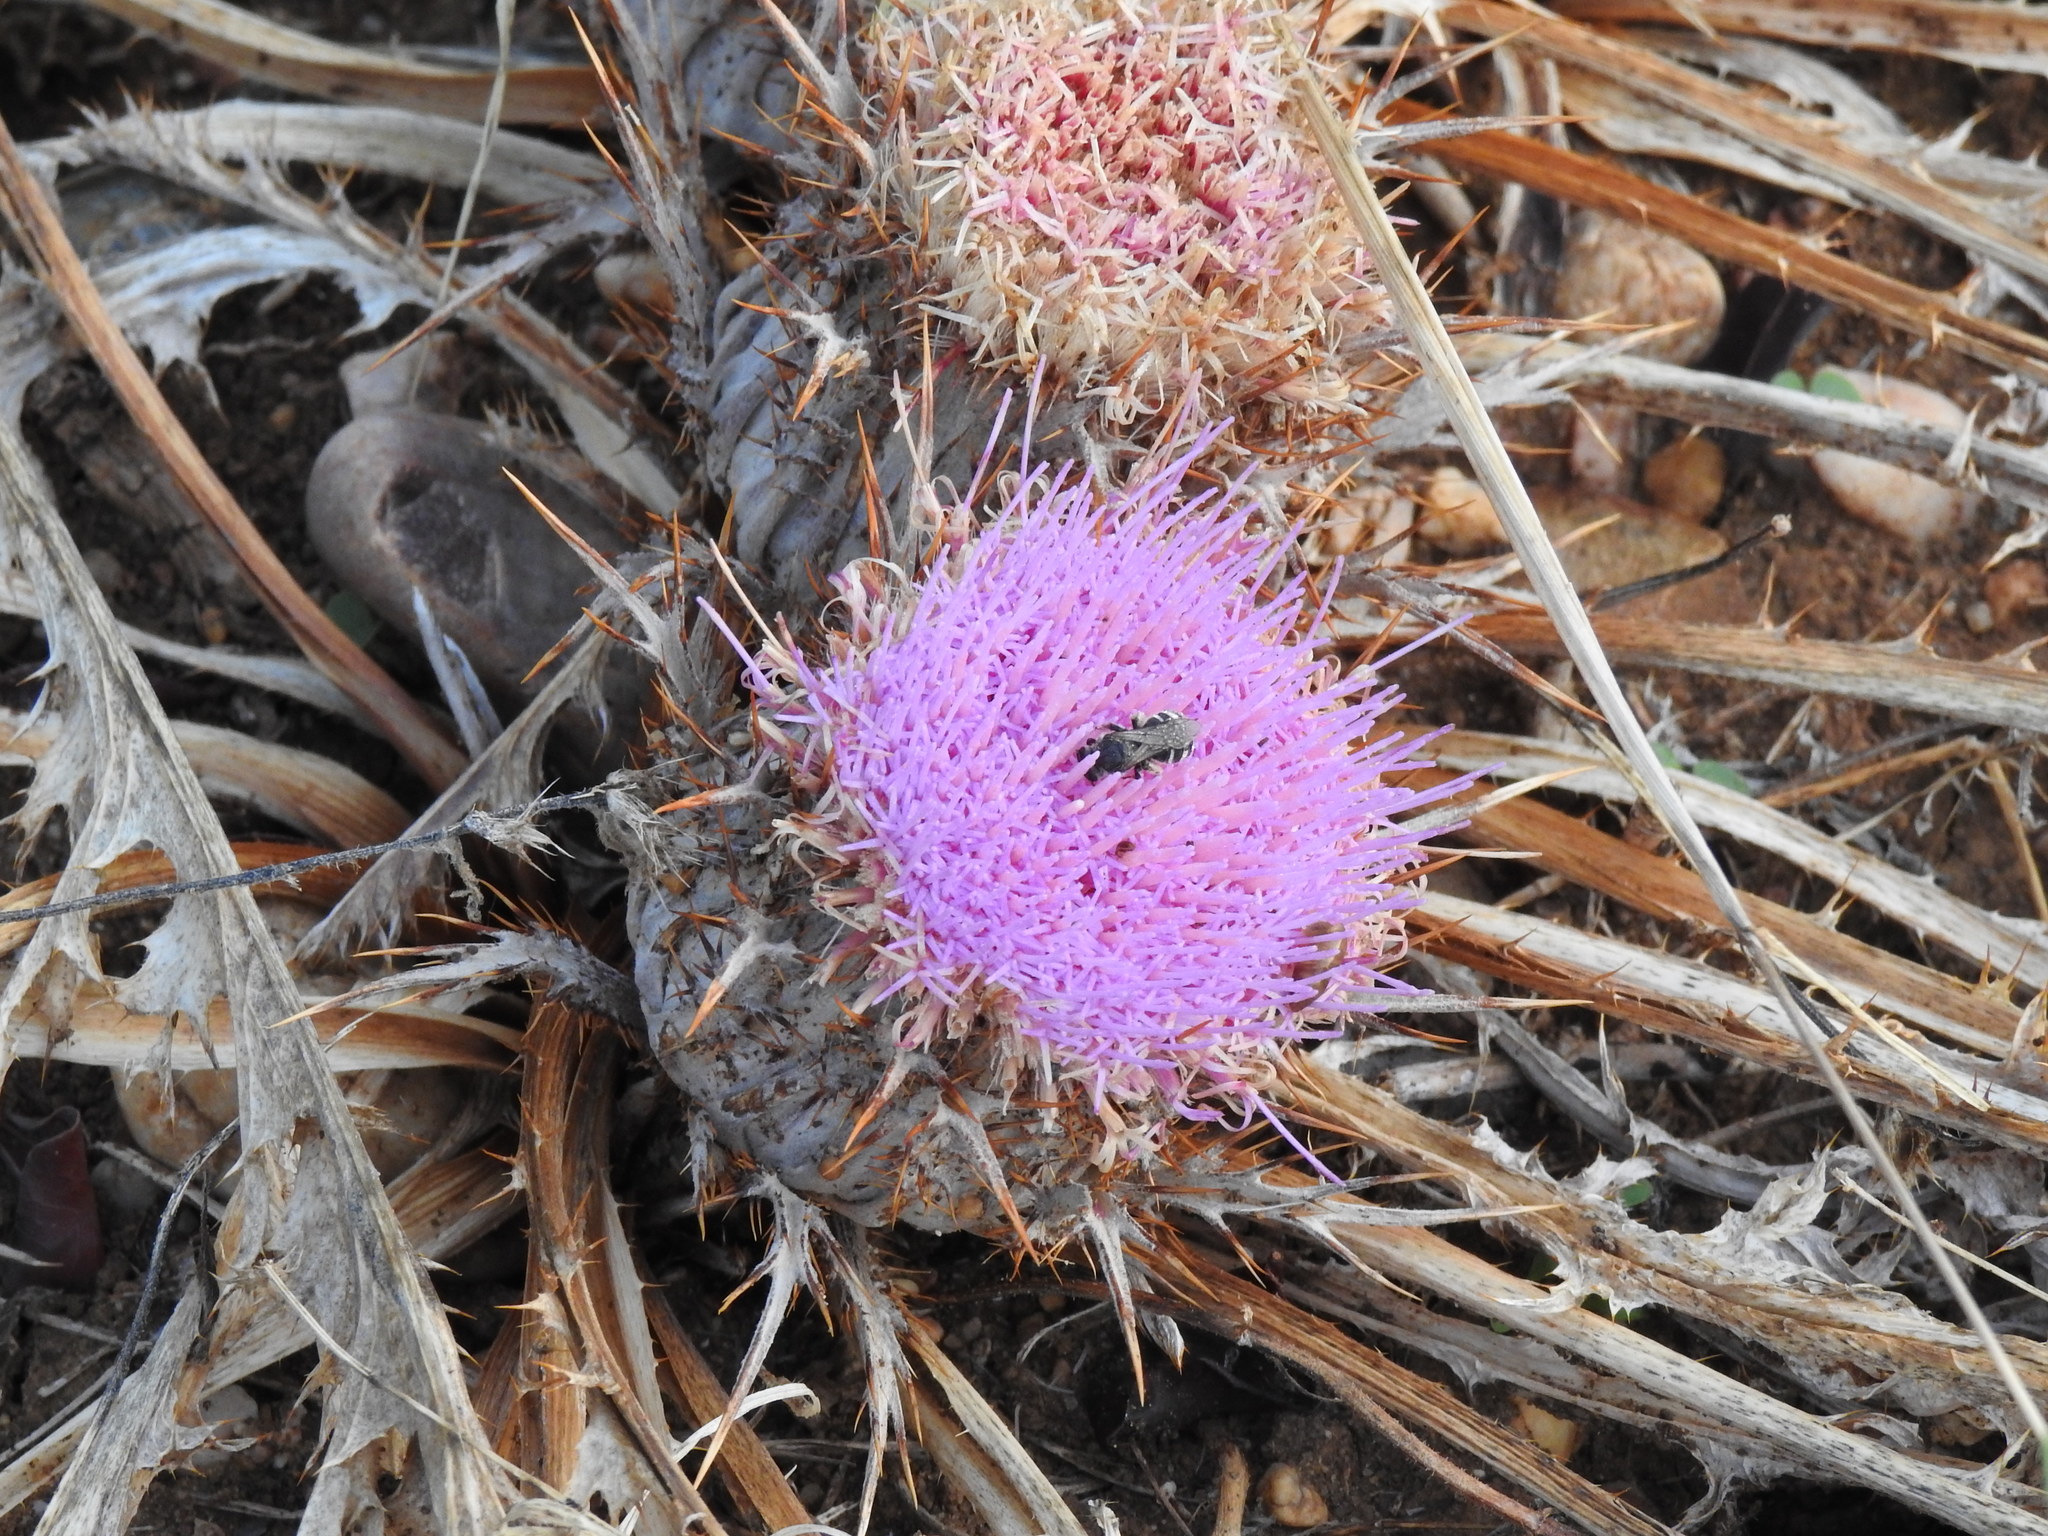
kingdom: Plantae
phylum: Tracheophyta
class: Magnoliopsida
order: Asterales
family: Asteraceae
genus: Chamaeleon
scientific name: Chamaeleon gummifer
